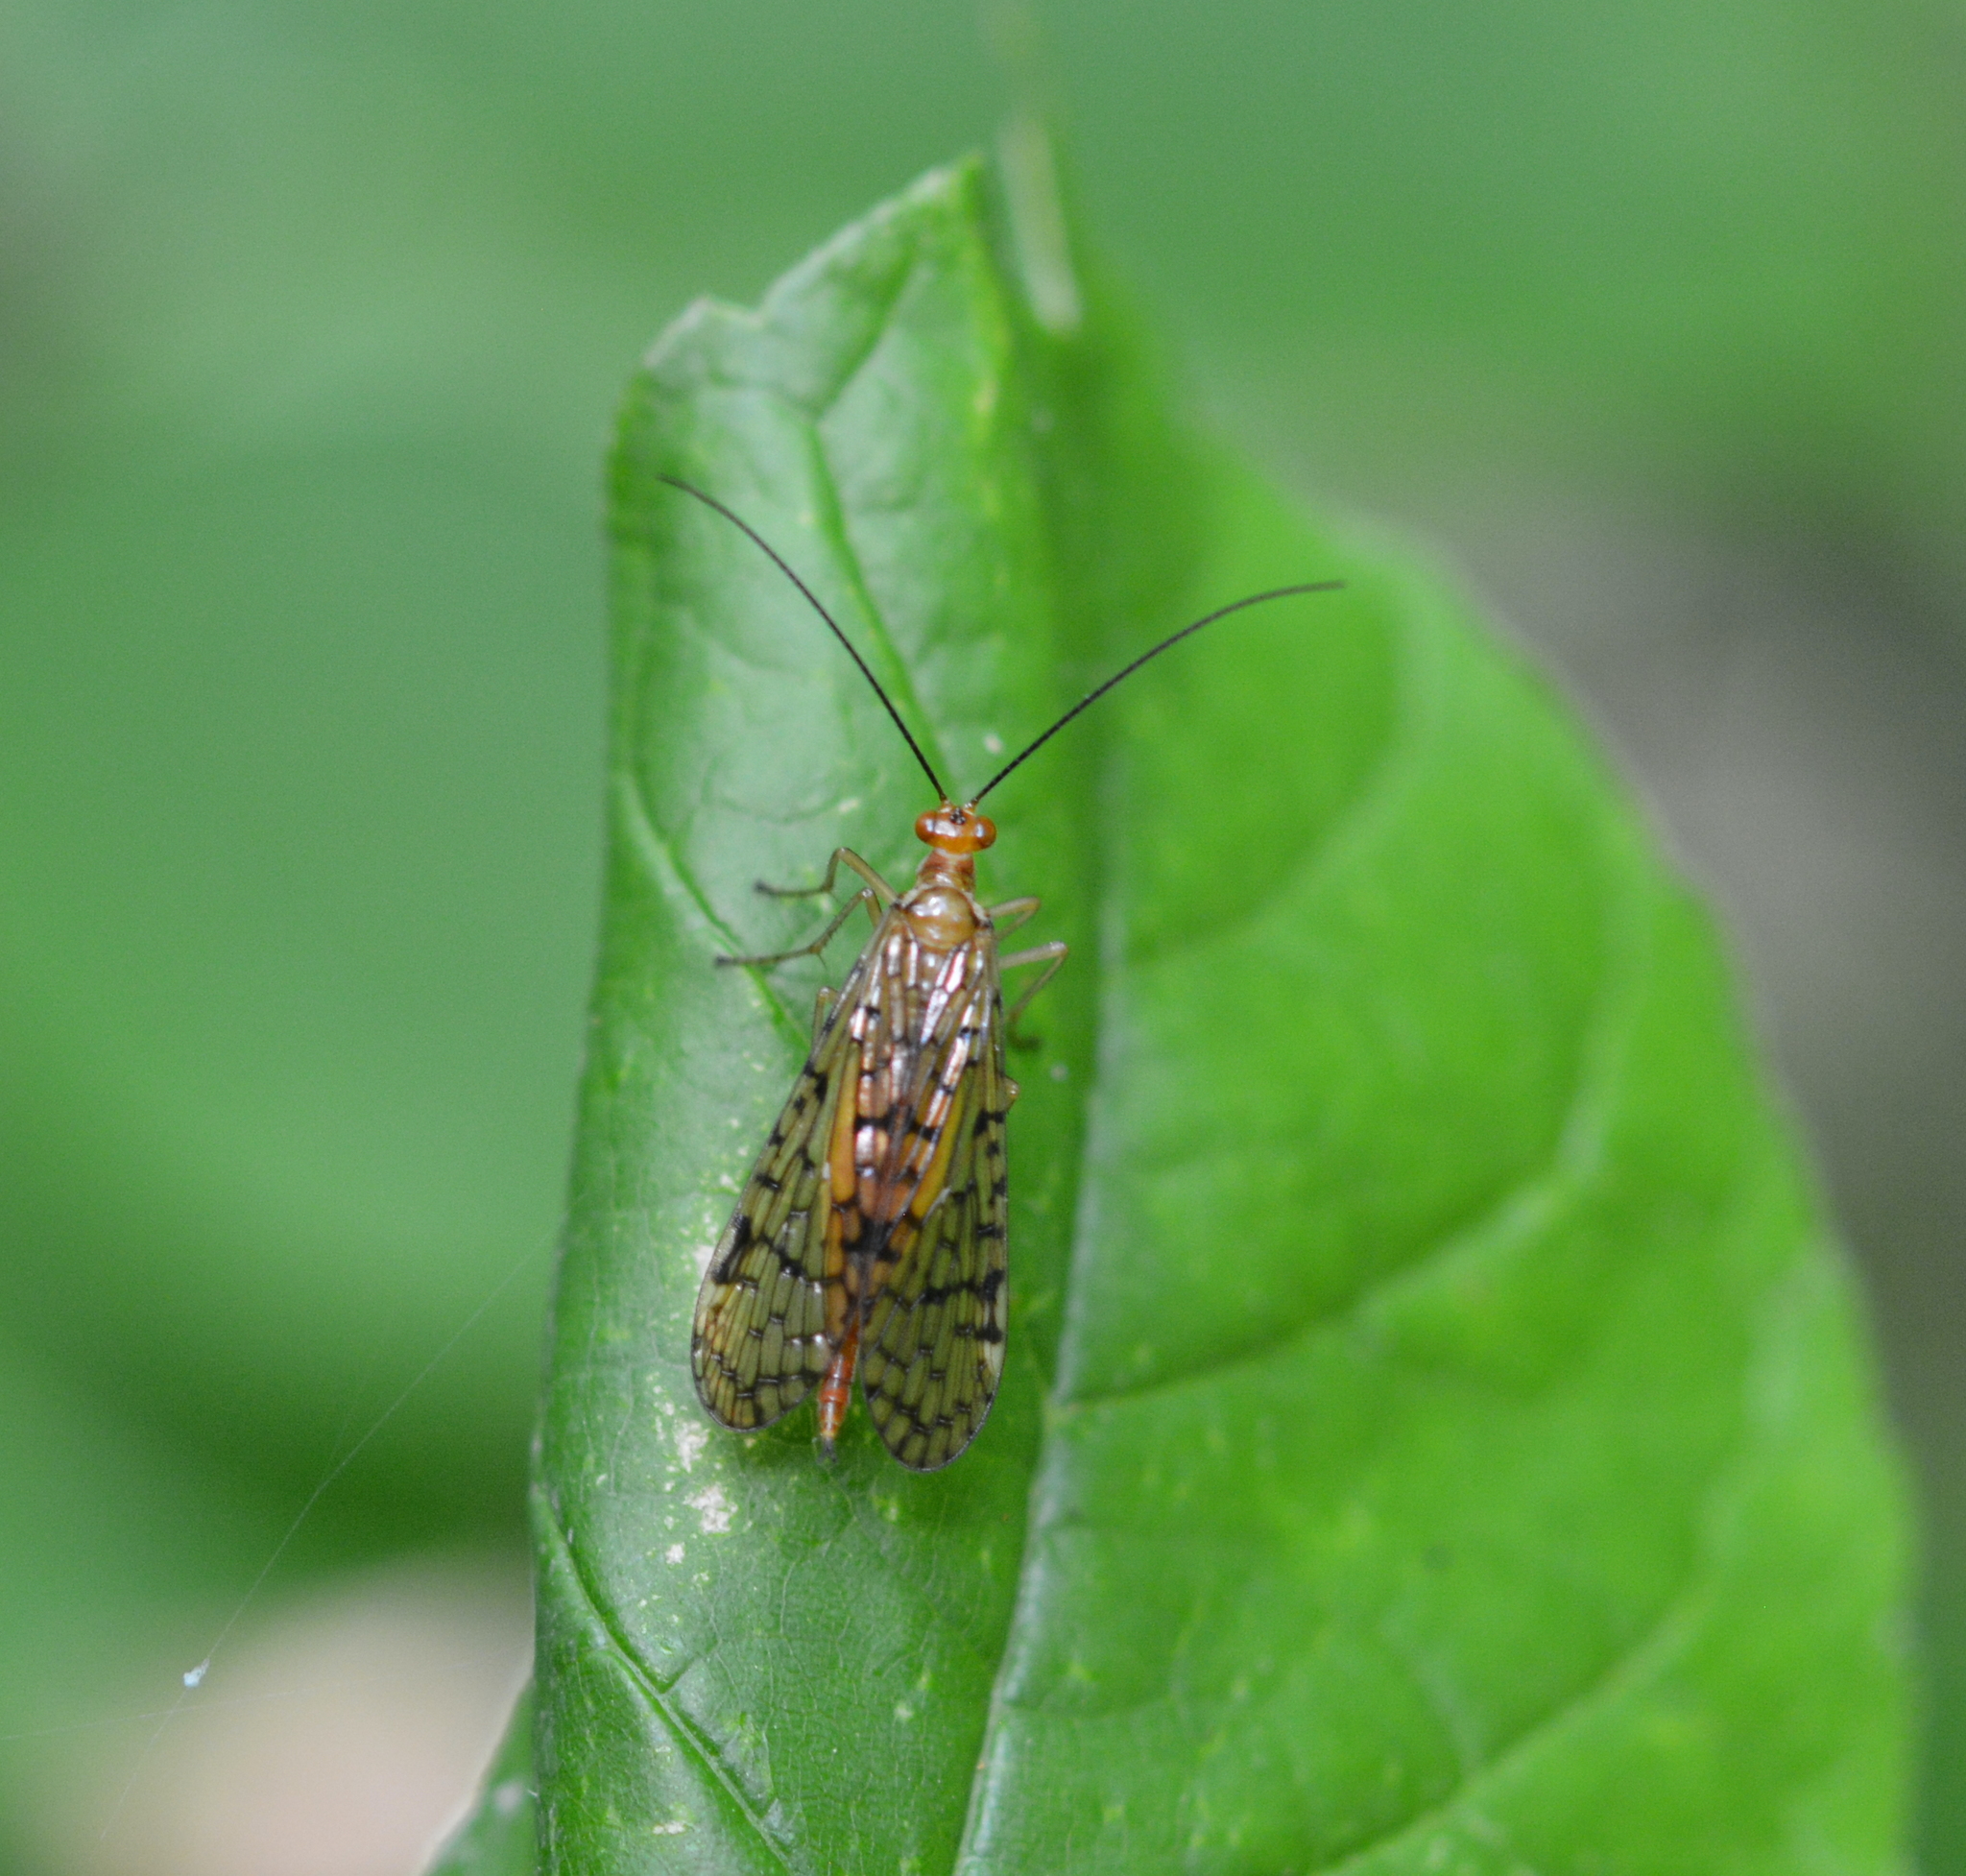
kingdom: Animalia
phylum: Arthropoda
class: Insecta
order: Mecoptera
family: Panorpidae
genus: Panorpa
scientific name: Panorpa vernalis
